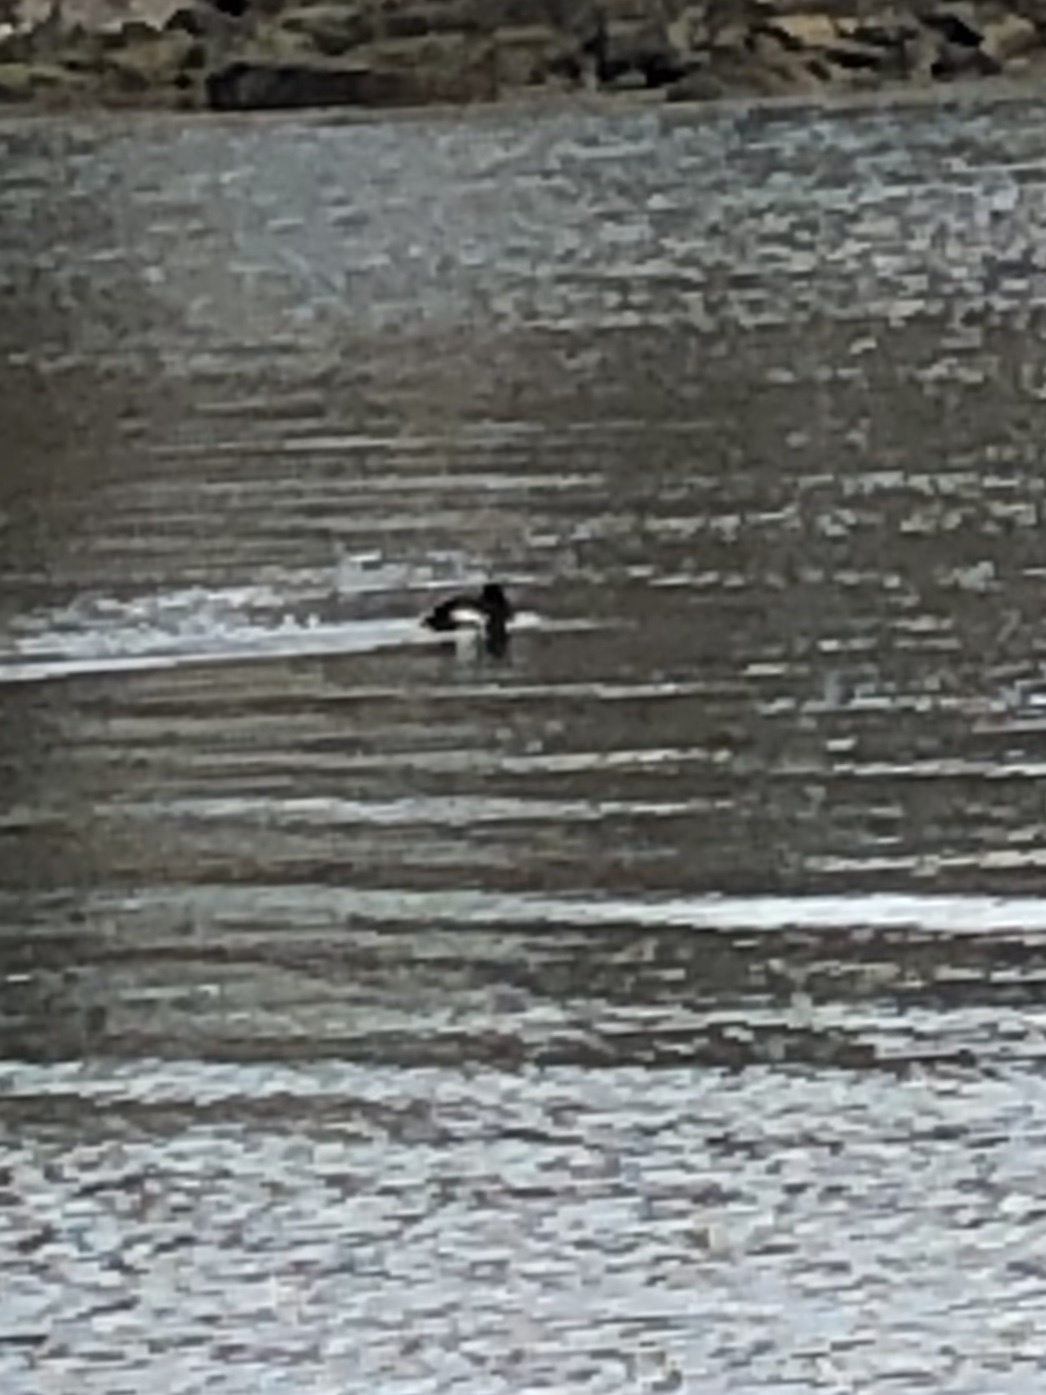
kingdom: Animalia
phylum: Chordata
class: Aves
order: Anseriformes
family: Anatidae
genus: Melanitta
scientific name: Melanitta deglandi
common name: White-winged scoter
